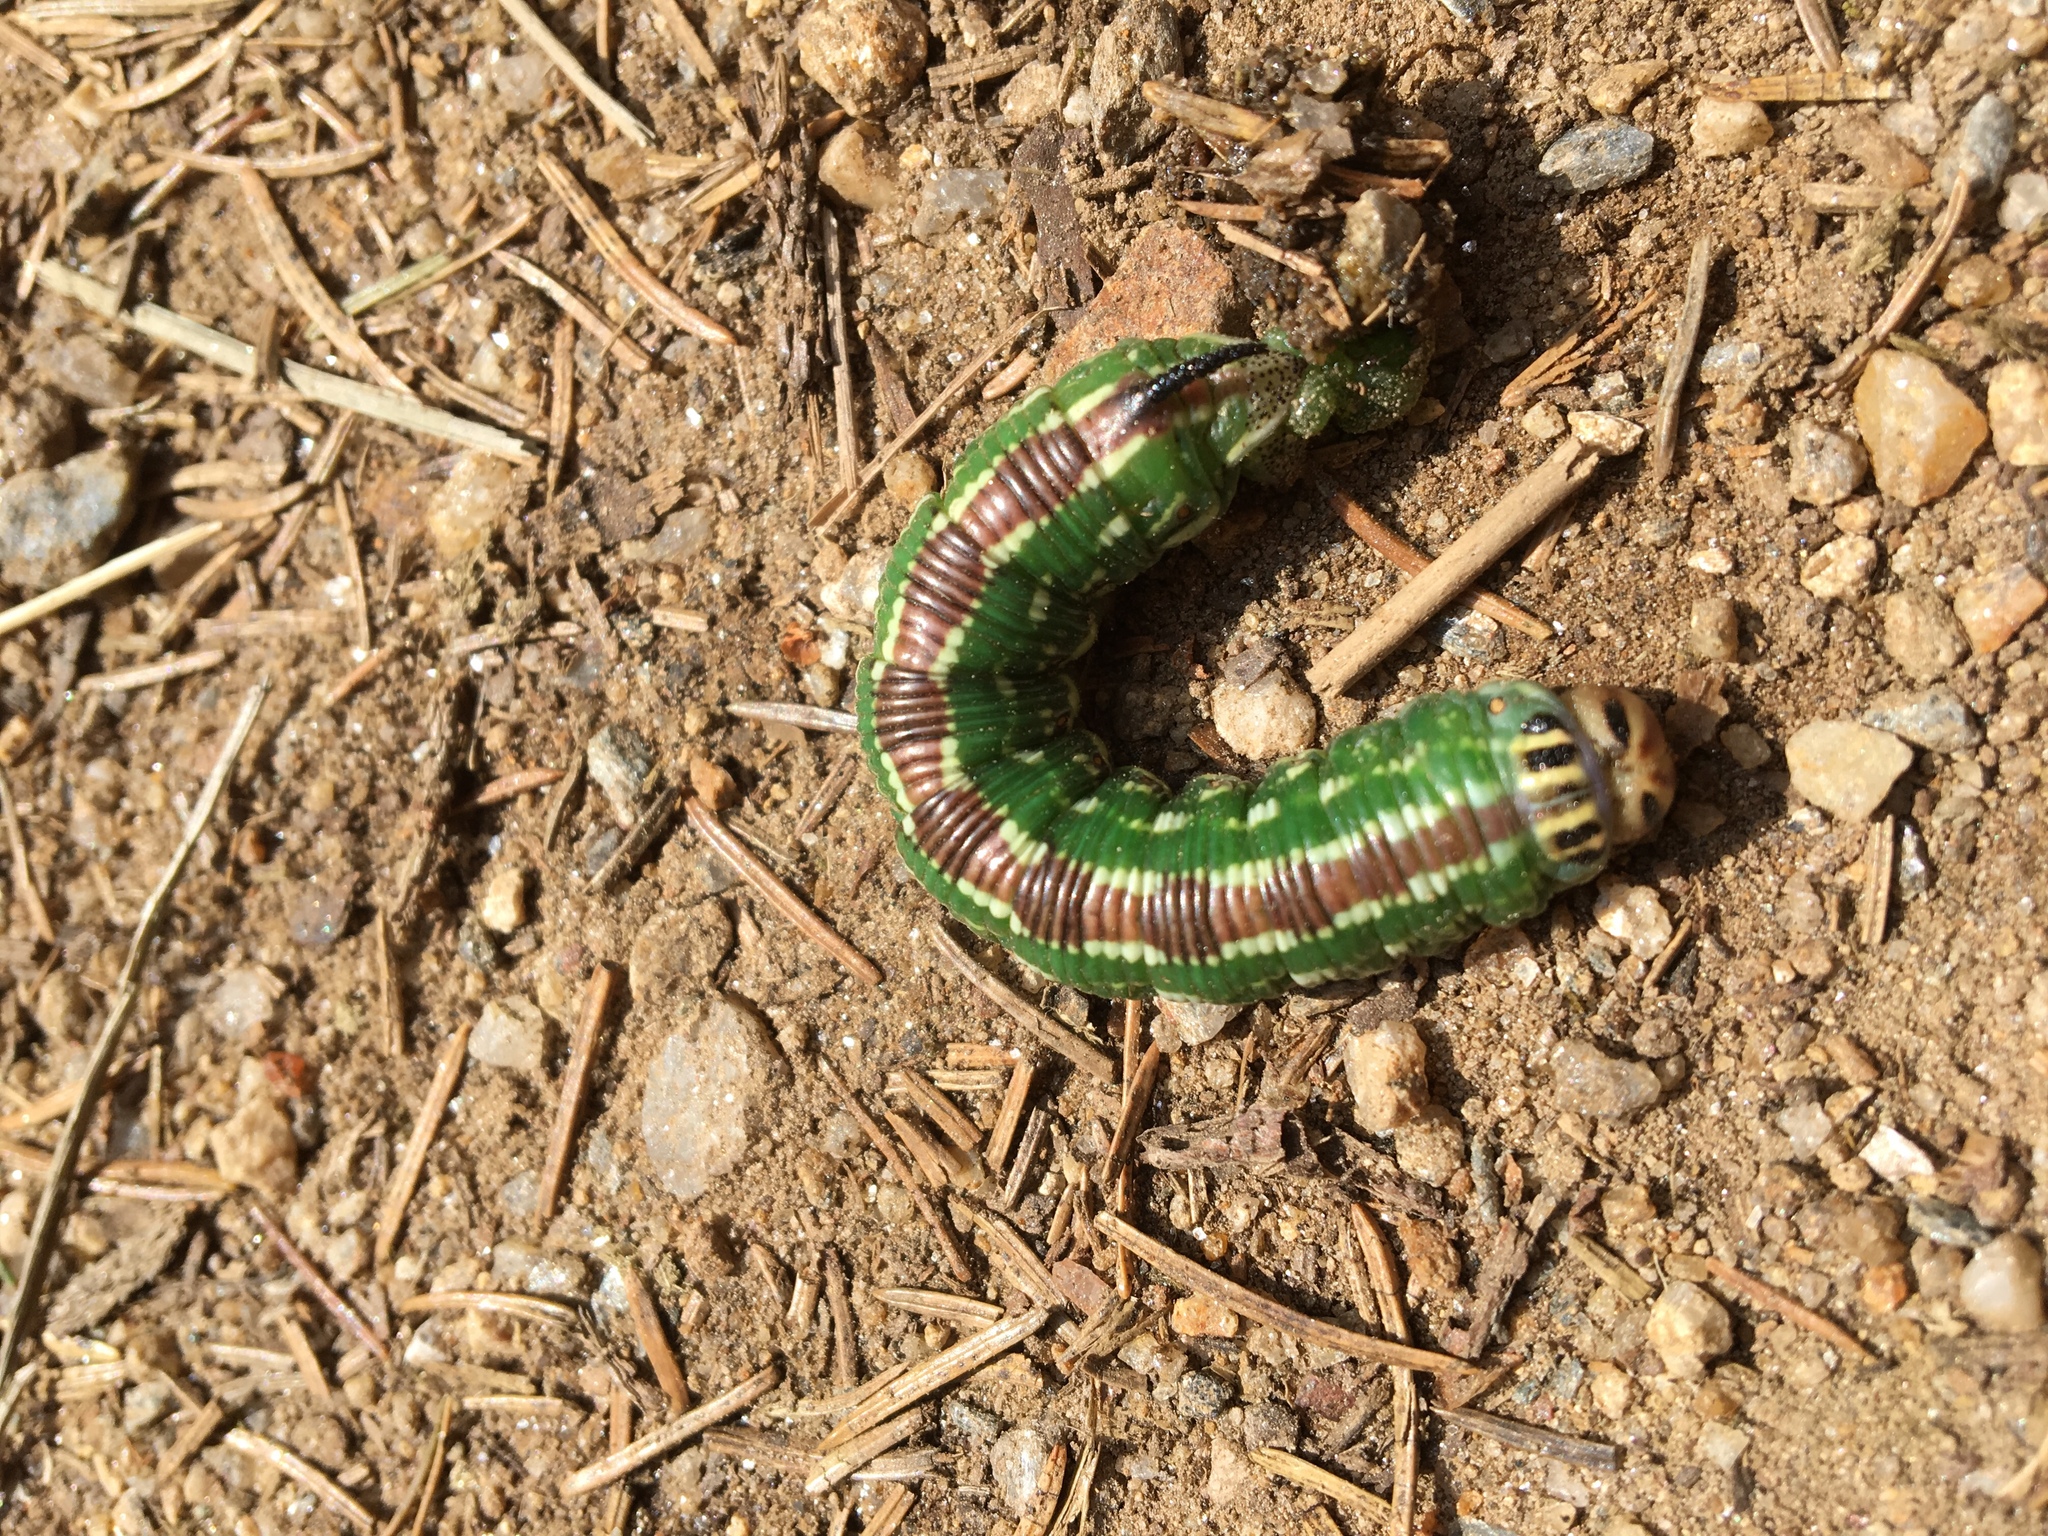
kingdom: Animalia
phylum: Arthropoda
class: Insecta
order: Lepidoptera
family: Sphingidae
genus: Sphinx
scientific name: Sphinx pinastri
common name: Pine hawk-moth
